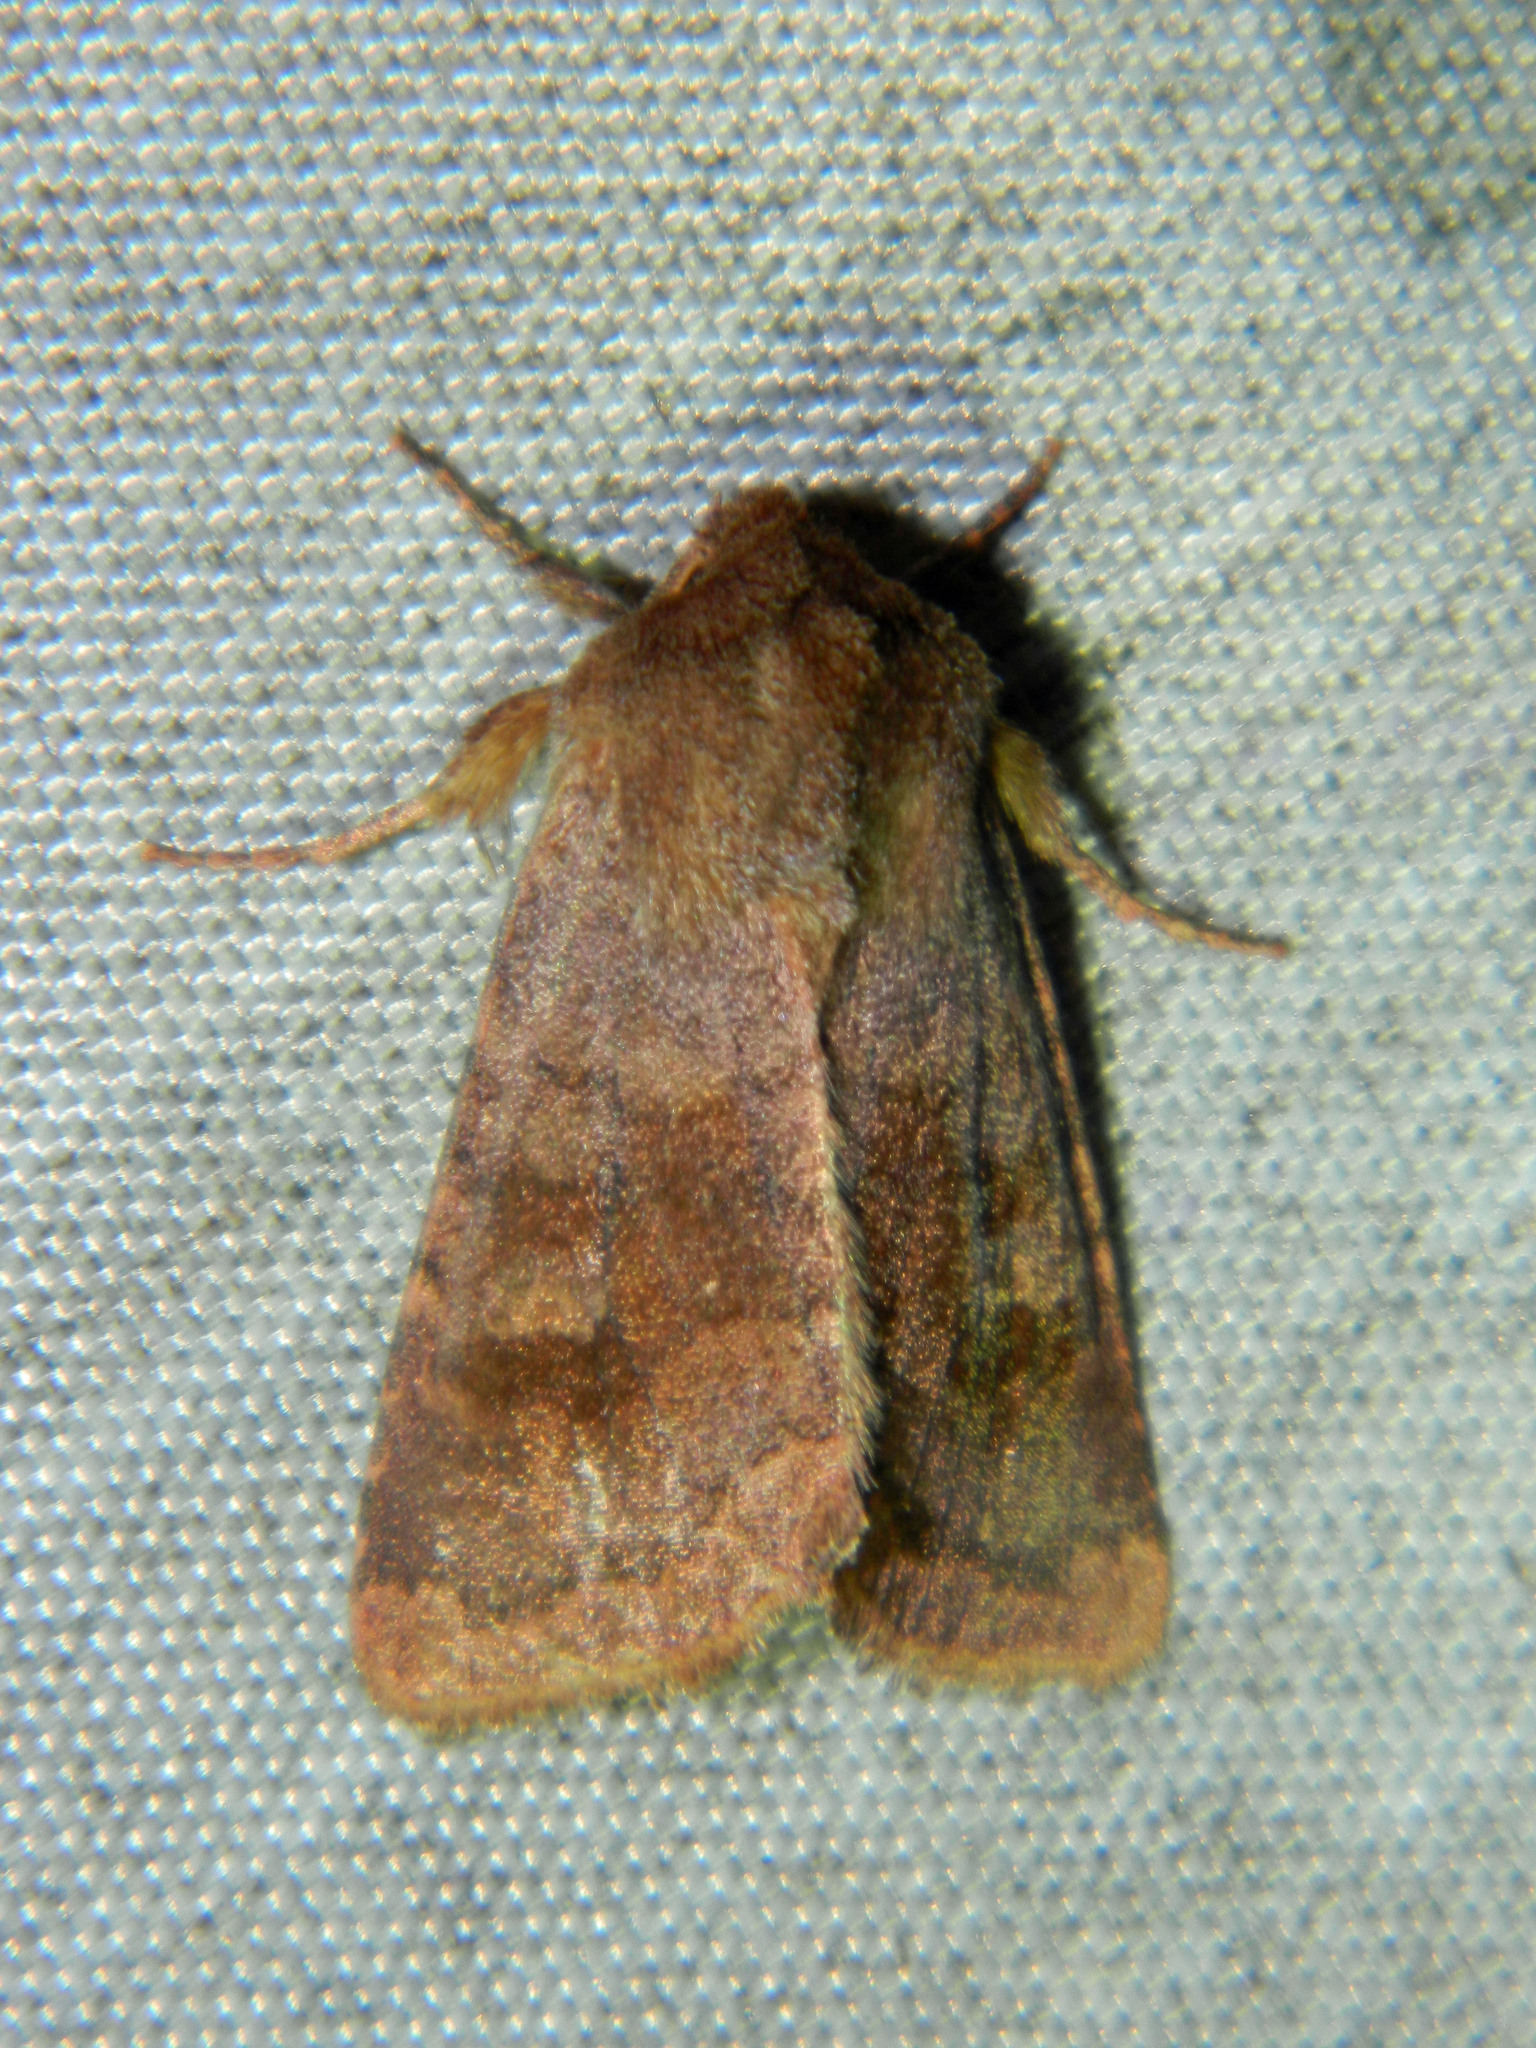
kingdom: Animalia
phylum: Arthropoda
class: Insecta
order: Lepidoptera
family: Noctuidae
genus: Nephelodes
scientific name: Nephelodes minians
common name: Bronzed cutworm
